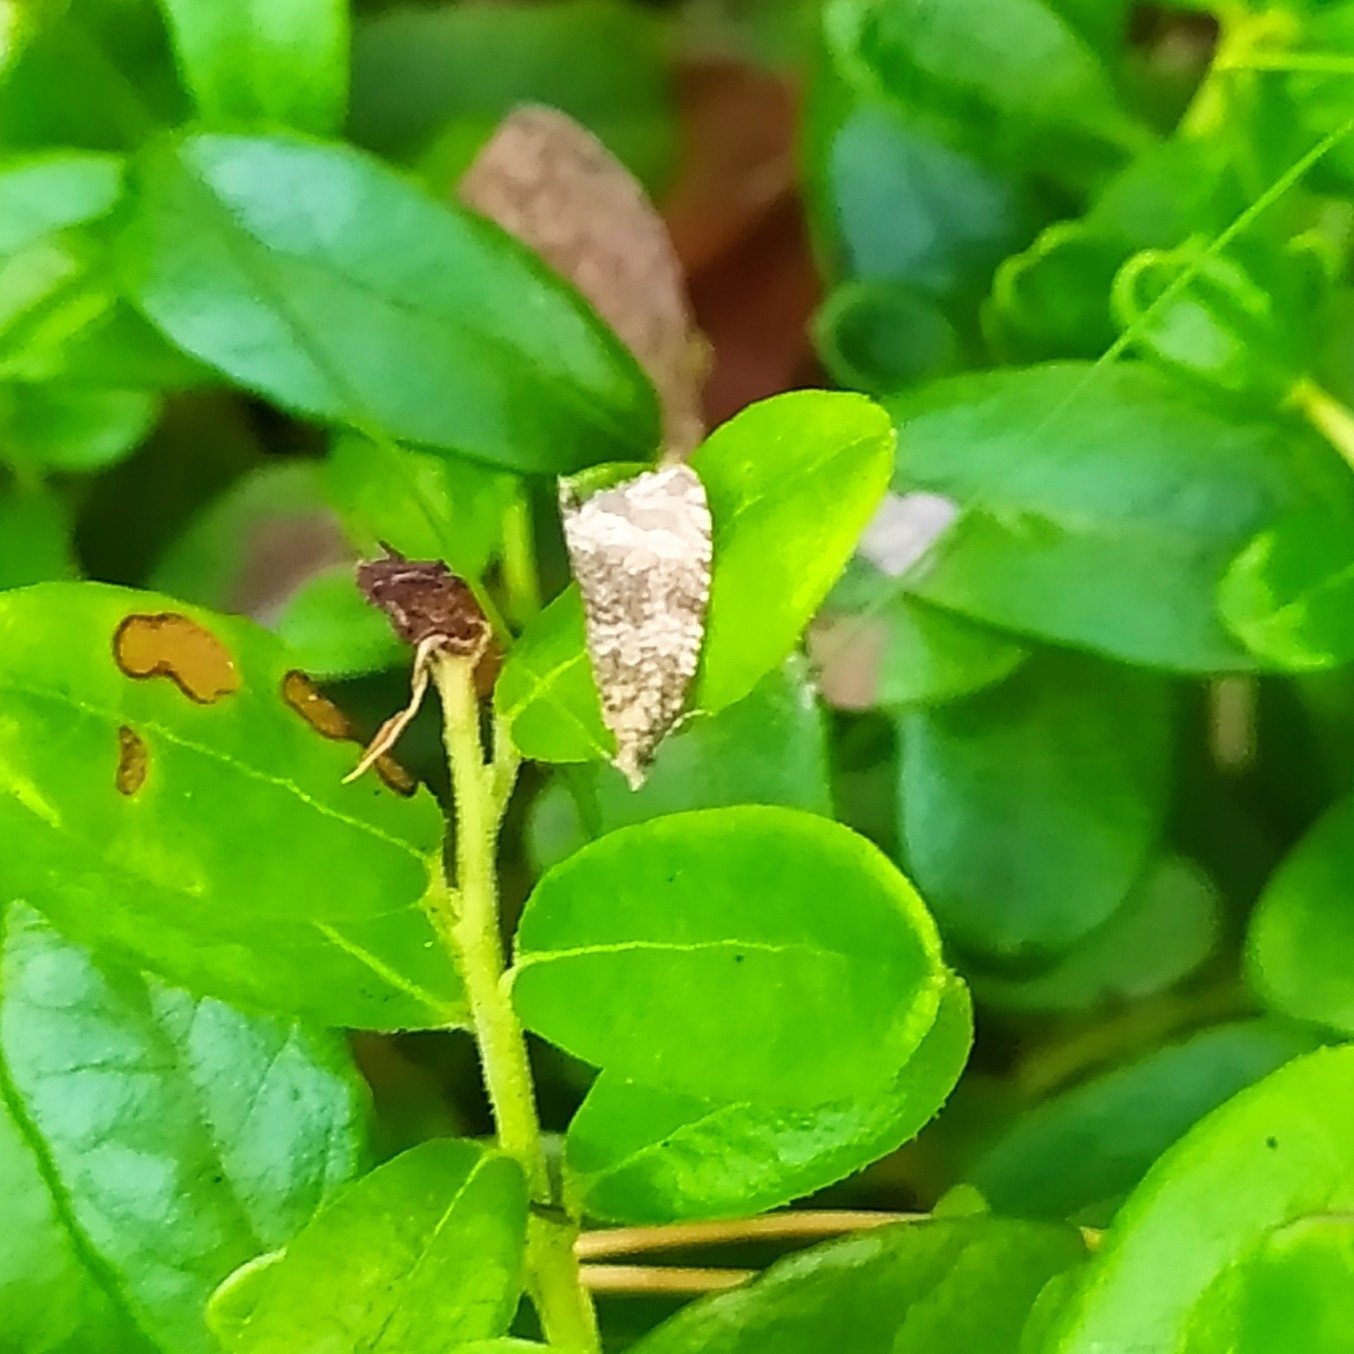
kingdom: Animalia
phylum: Arthropoda
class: Insecta
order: Lepidoptera
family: Tortricidae
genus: Syricoris
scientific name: Syricoris lacunana
